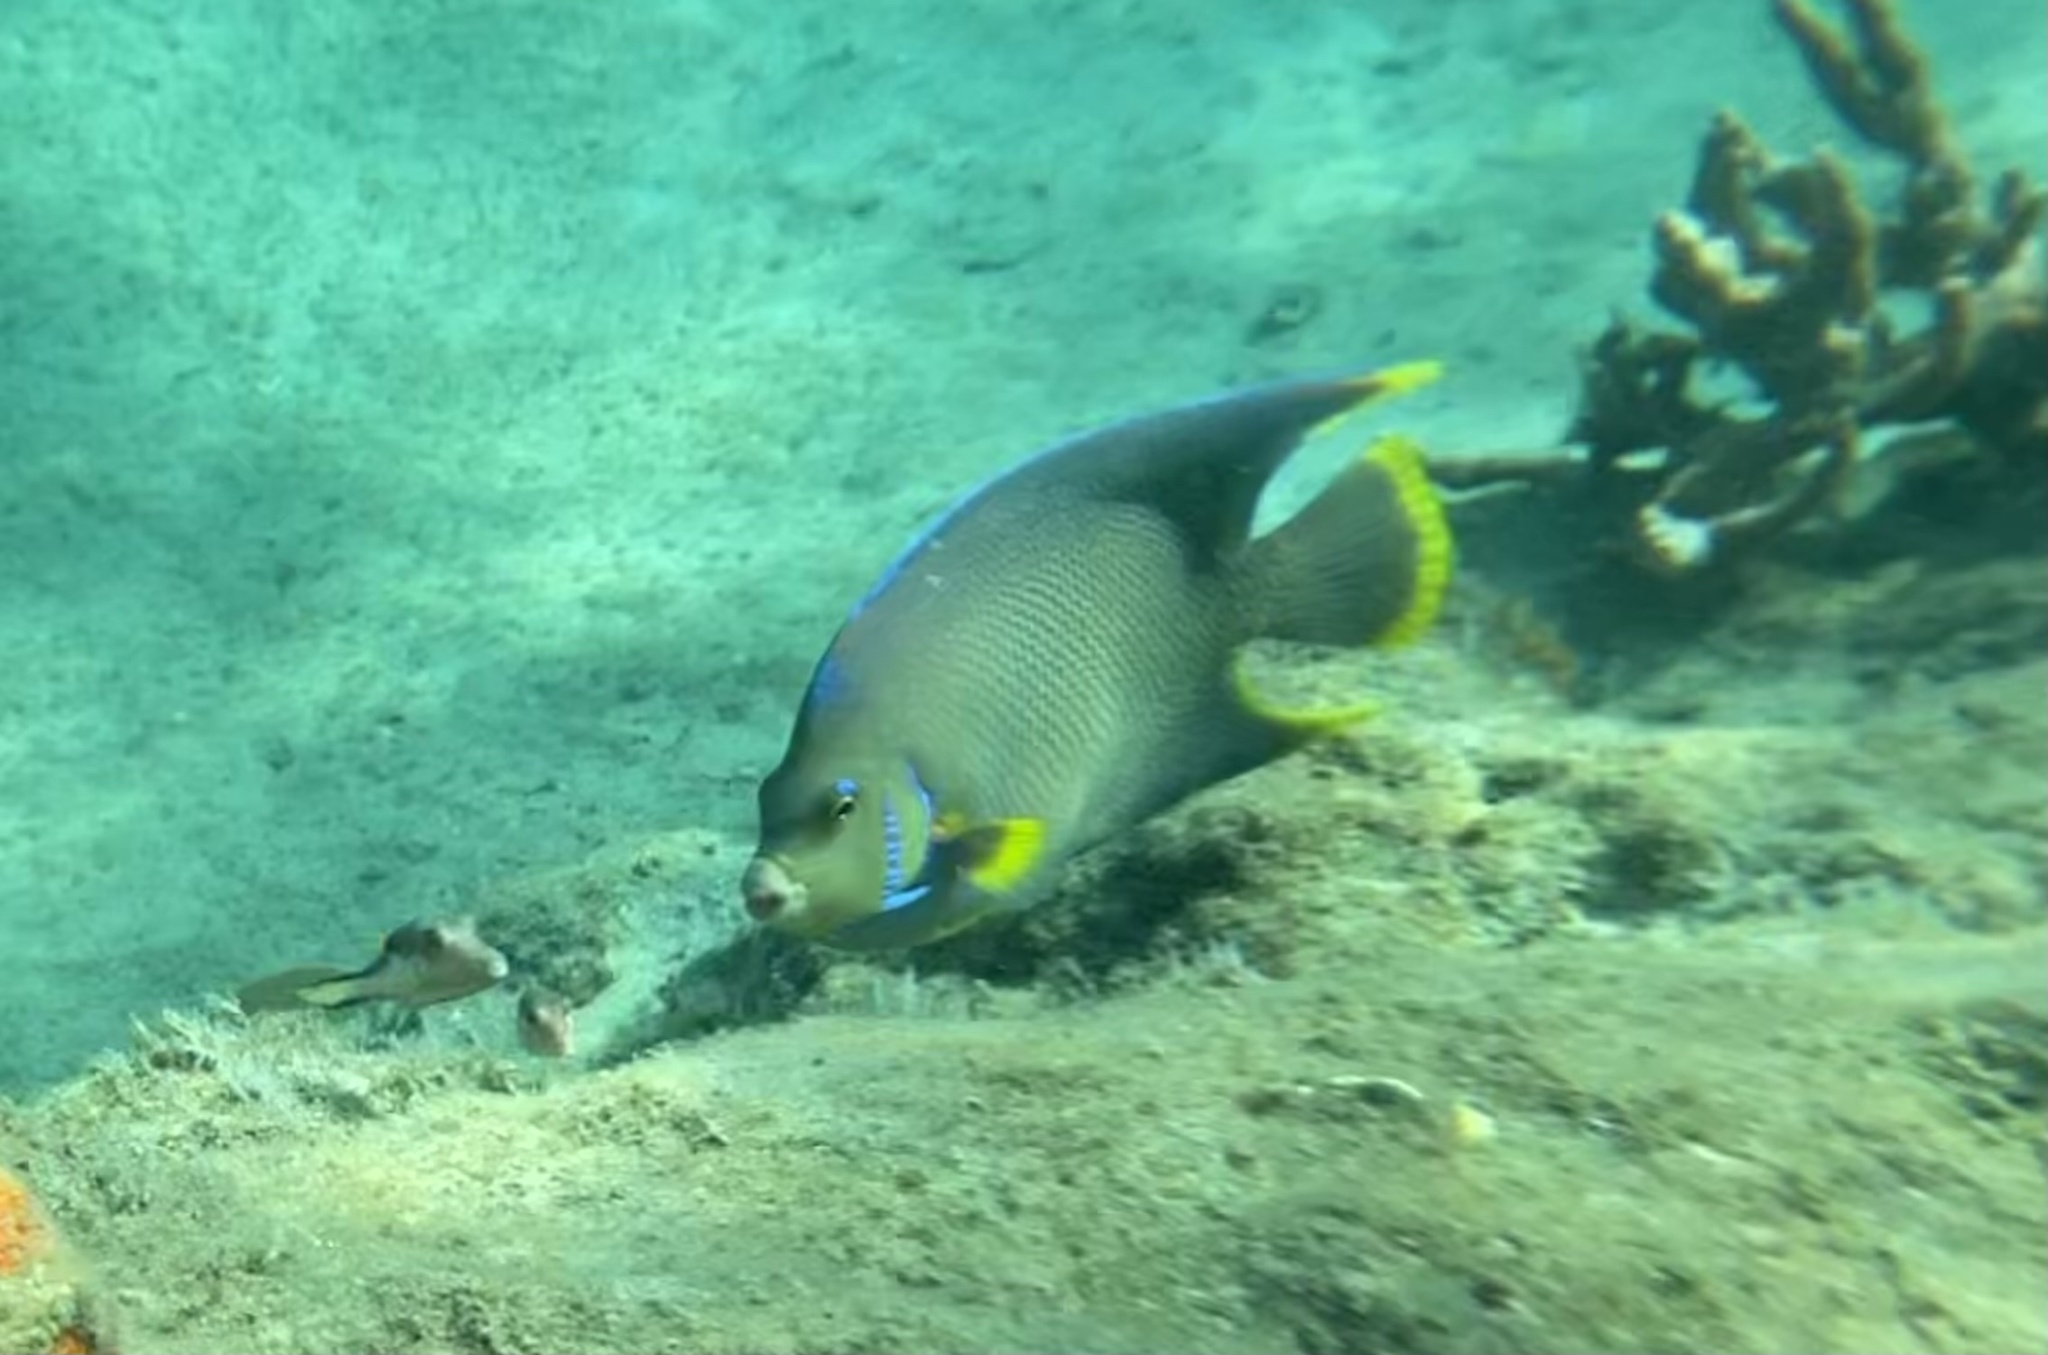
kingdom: Animalia
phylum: Chordata
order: Perciformes
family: Pomacanthidae
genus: Holacanthus
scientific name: Holacanthus bermudensis
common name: Blue angelfish
